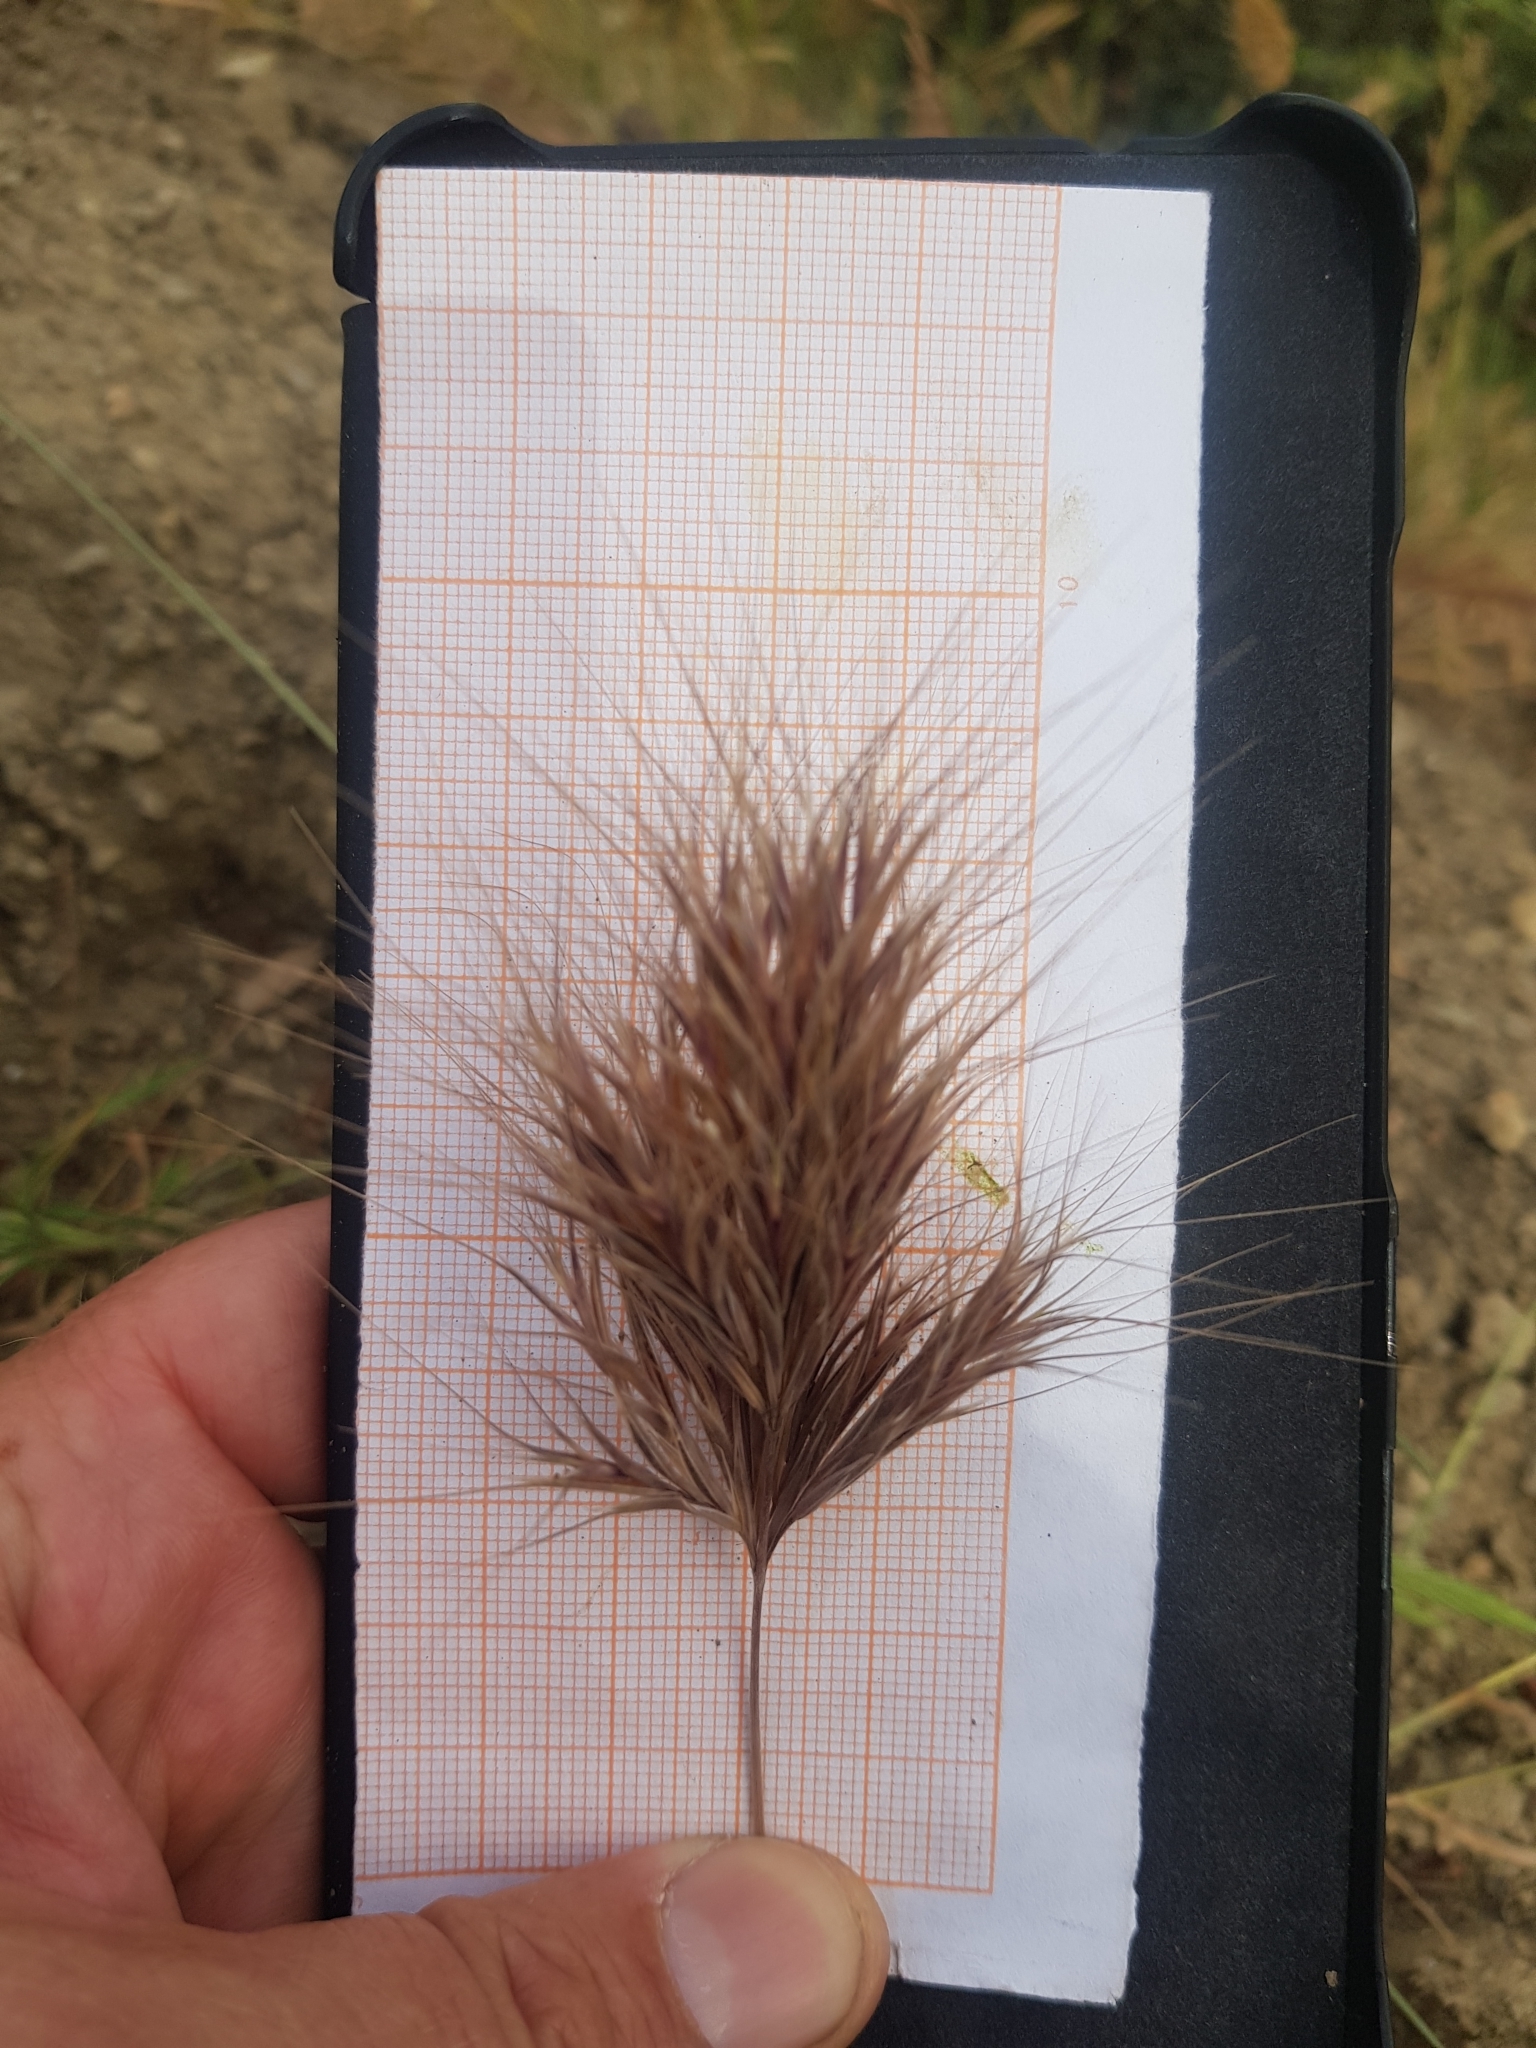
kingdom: Plantae
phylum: Tracheophyta
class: Liliopsida
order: Poales
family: Poaceae
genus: Bromus
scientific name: Bromus rubens
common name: Red brome
